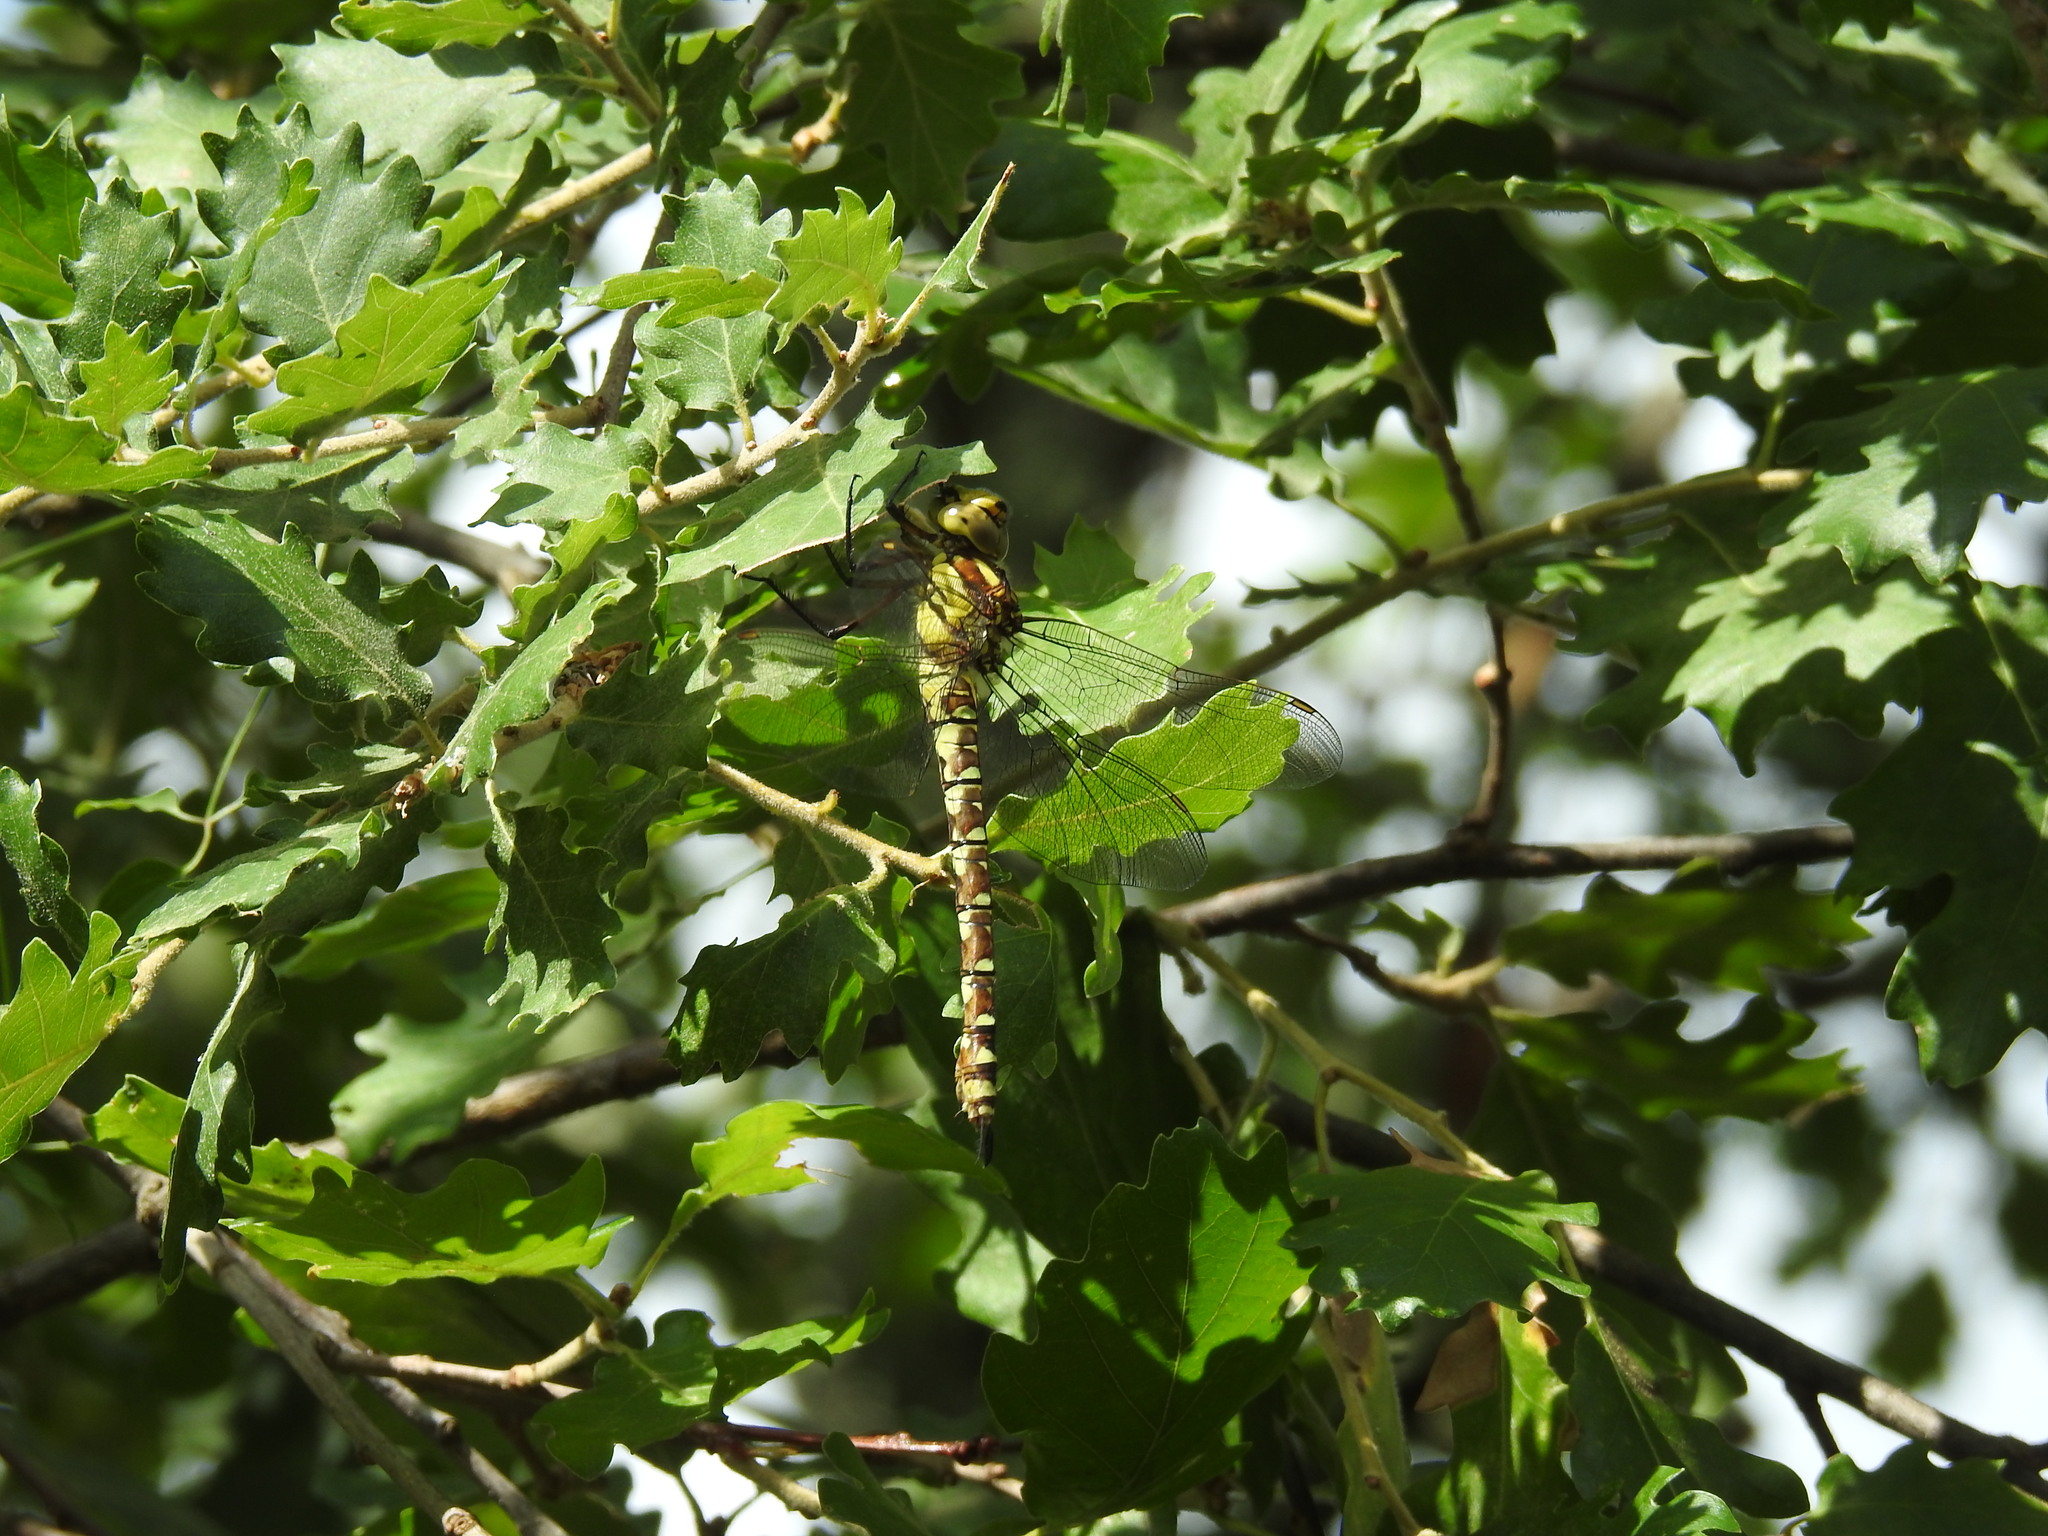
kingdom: Animalia
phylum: Arthropoda
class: Insecta
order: Odonata
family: Aeshnidae
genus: Aeshna
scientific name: Aeshna cyanea
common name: Southern hawker
